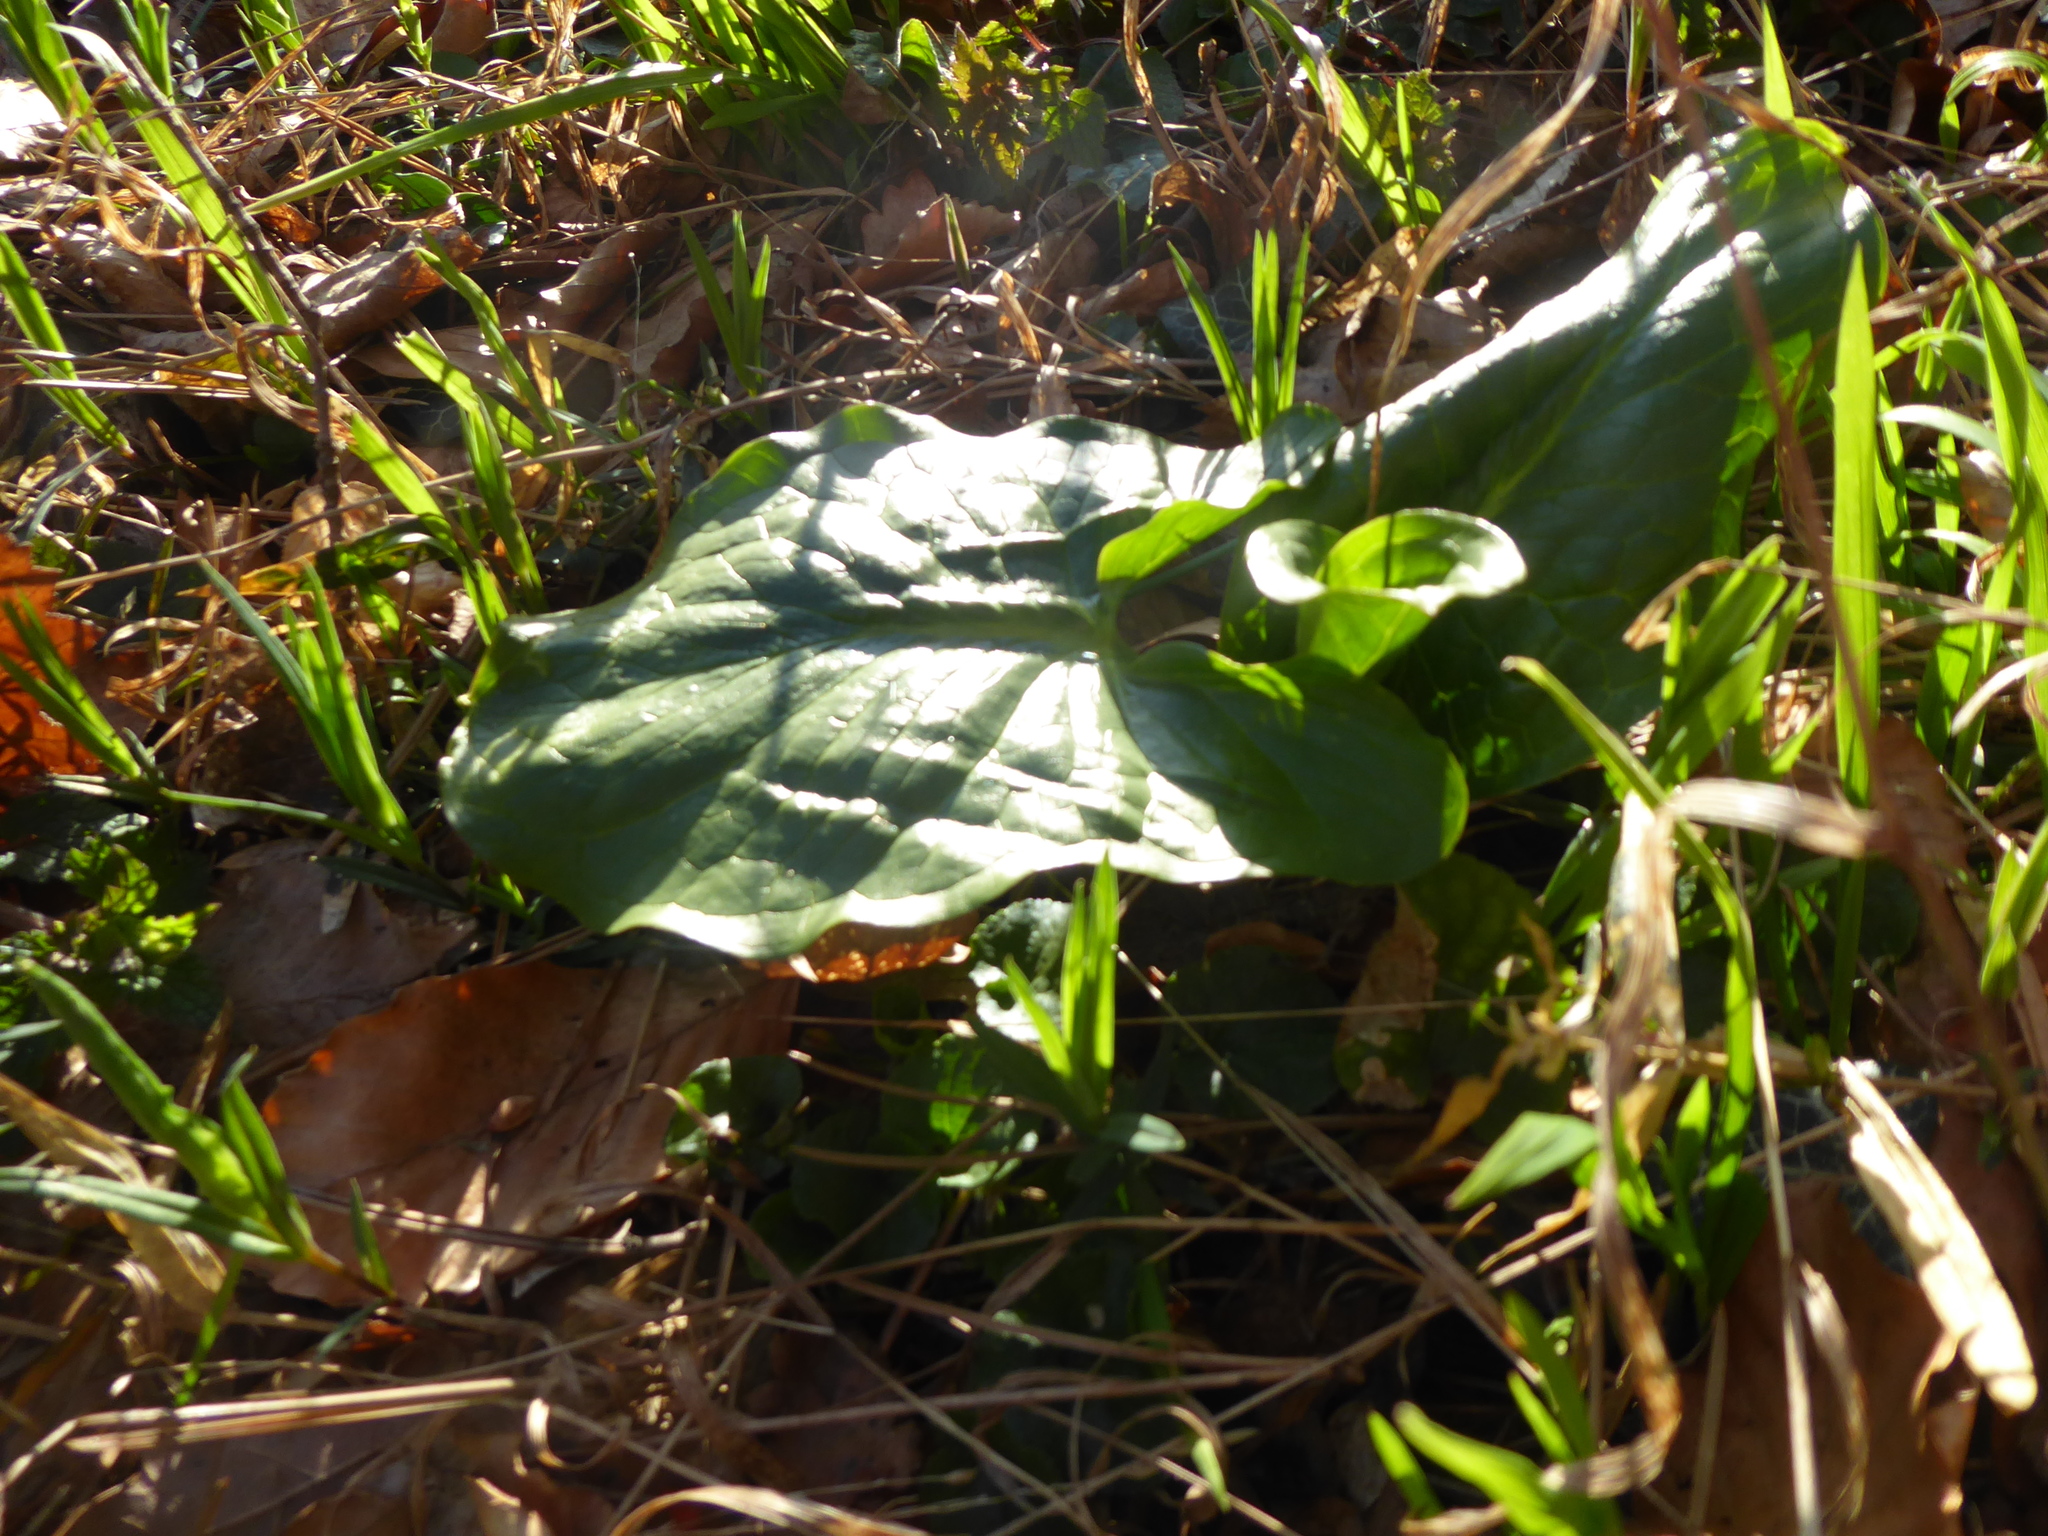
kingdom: Plantae
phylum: Tracheophyta
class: Liliopsida
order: Alismatales
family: Araceae
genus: Arum
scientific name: Arum cylindraceum
